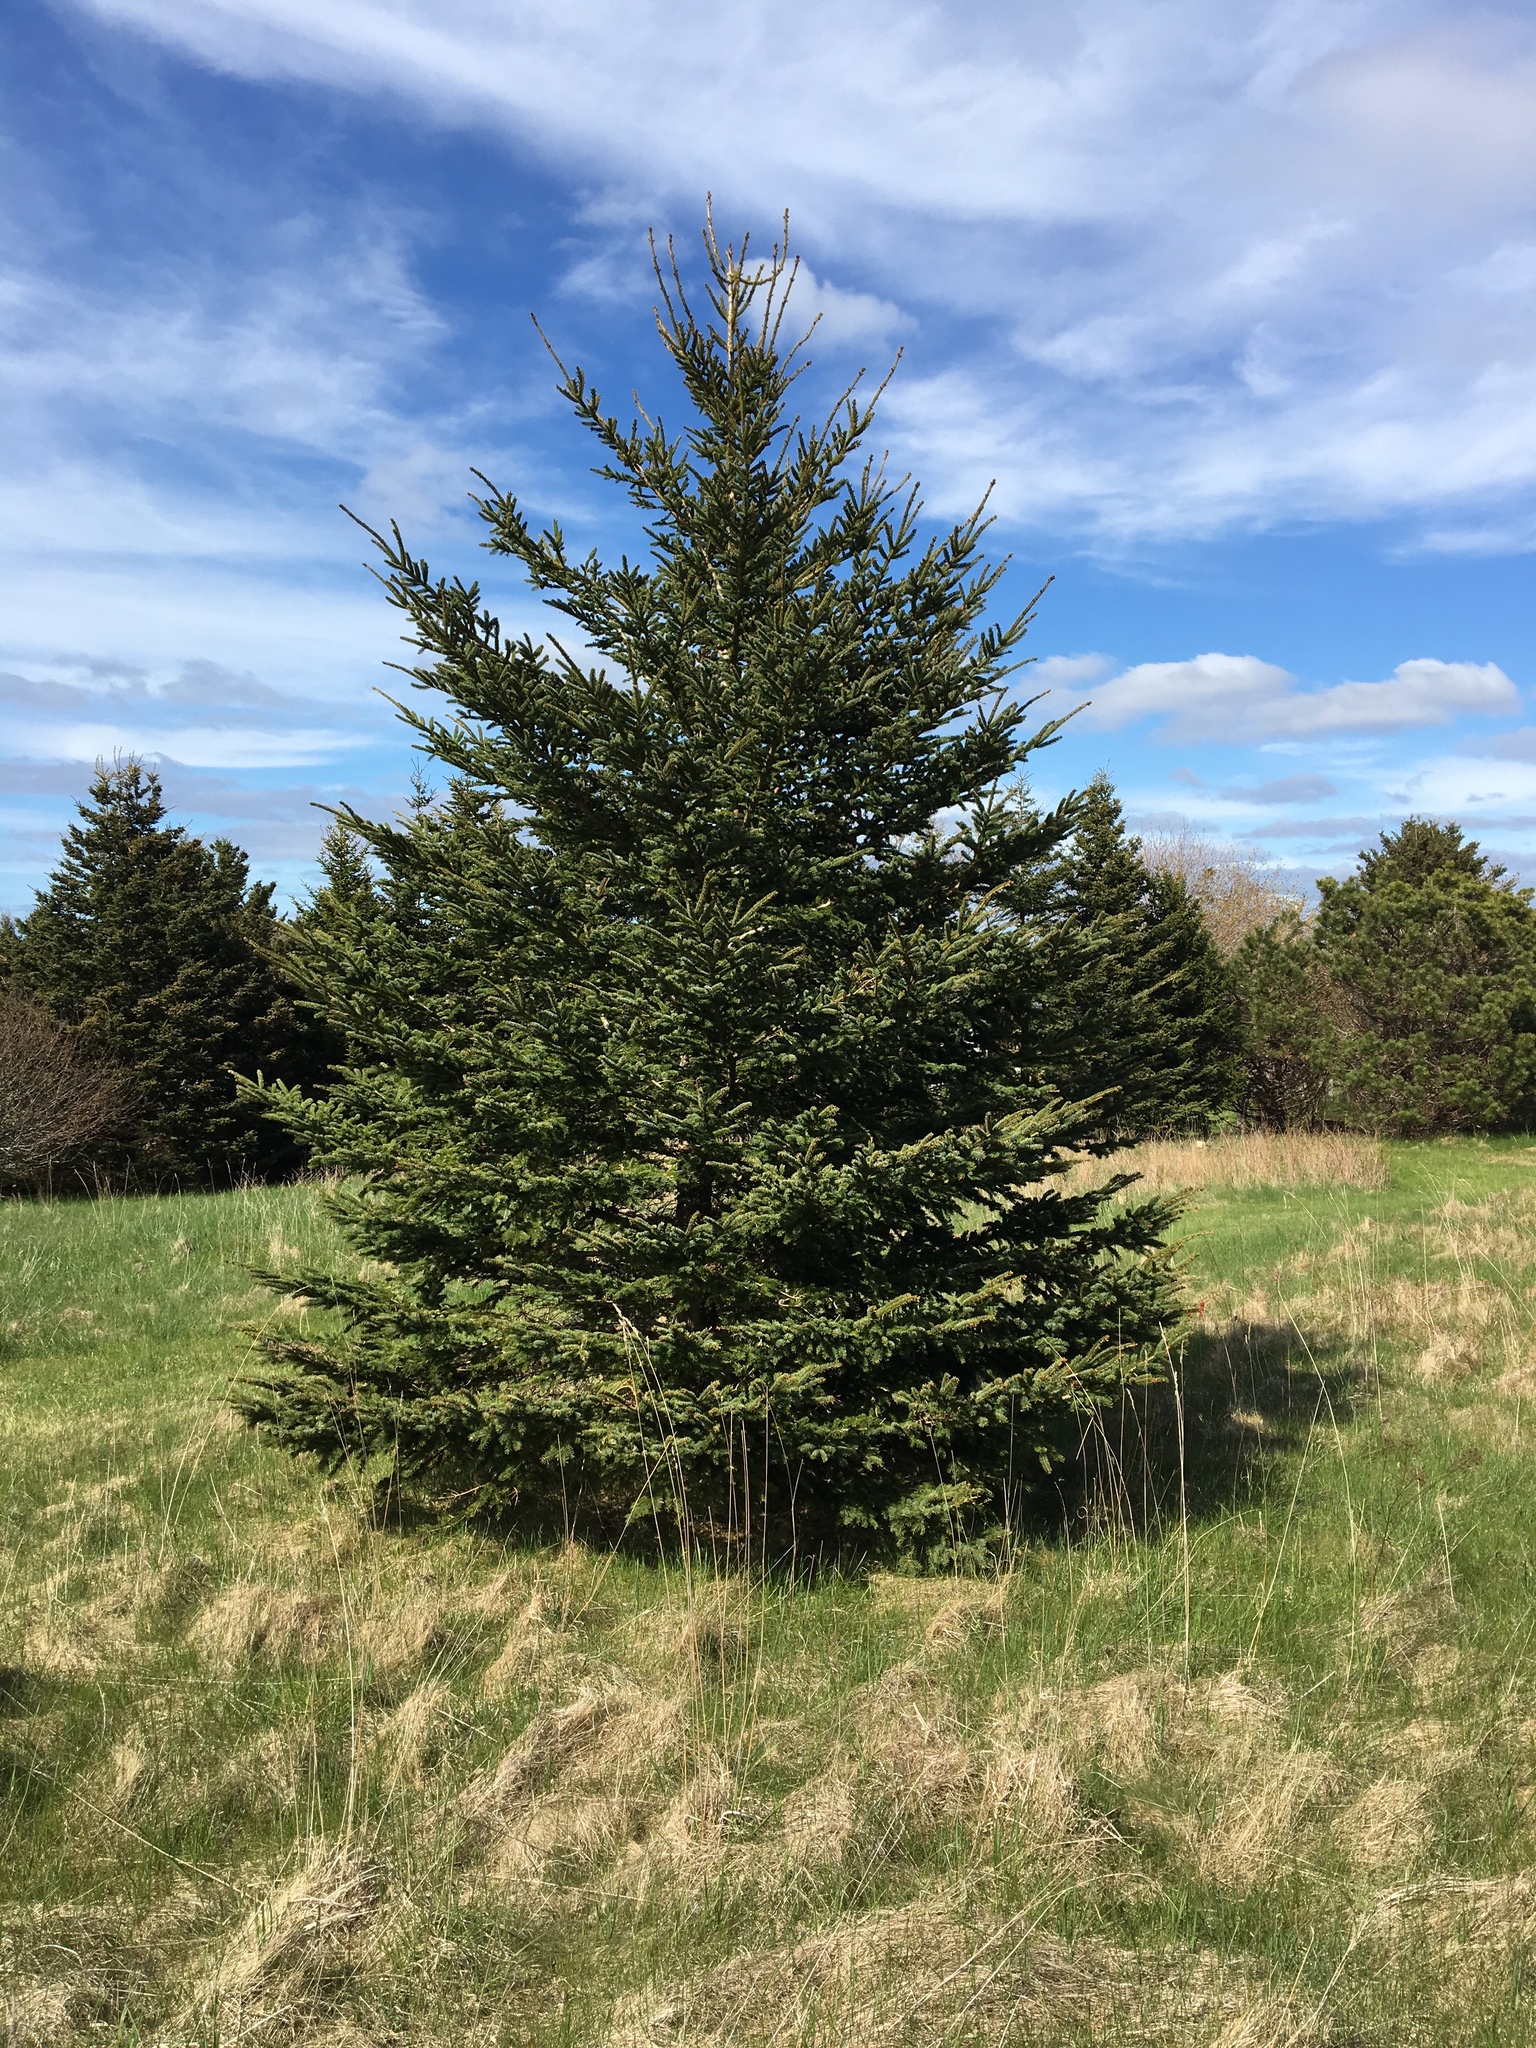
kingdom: Plantae
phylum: Tracheophyta
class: Pinopsida
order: Pinales
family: Pinaceae
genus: Picea
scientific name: Picea glauca
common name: White spruce
